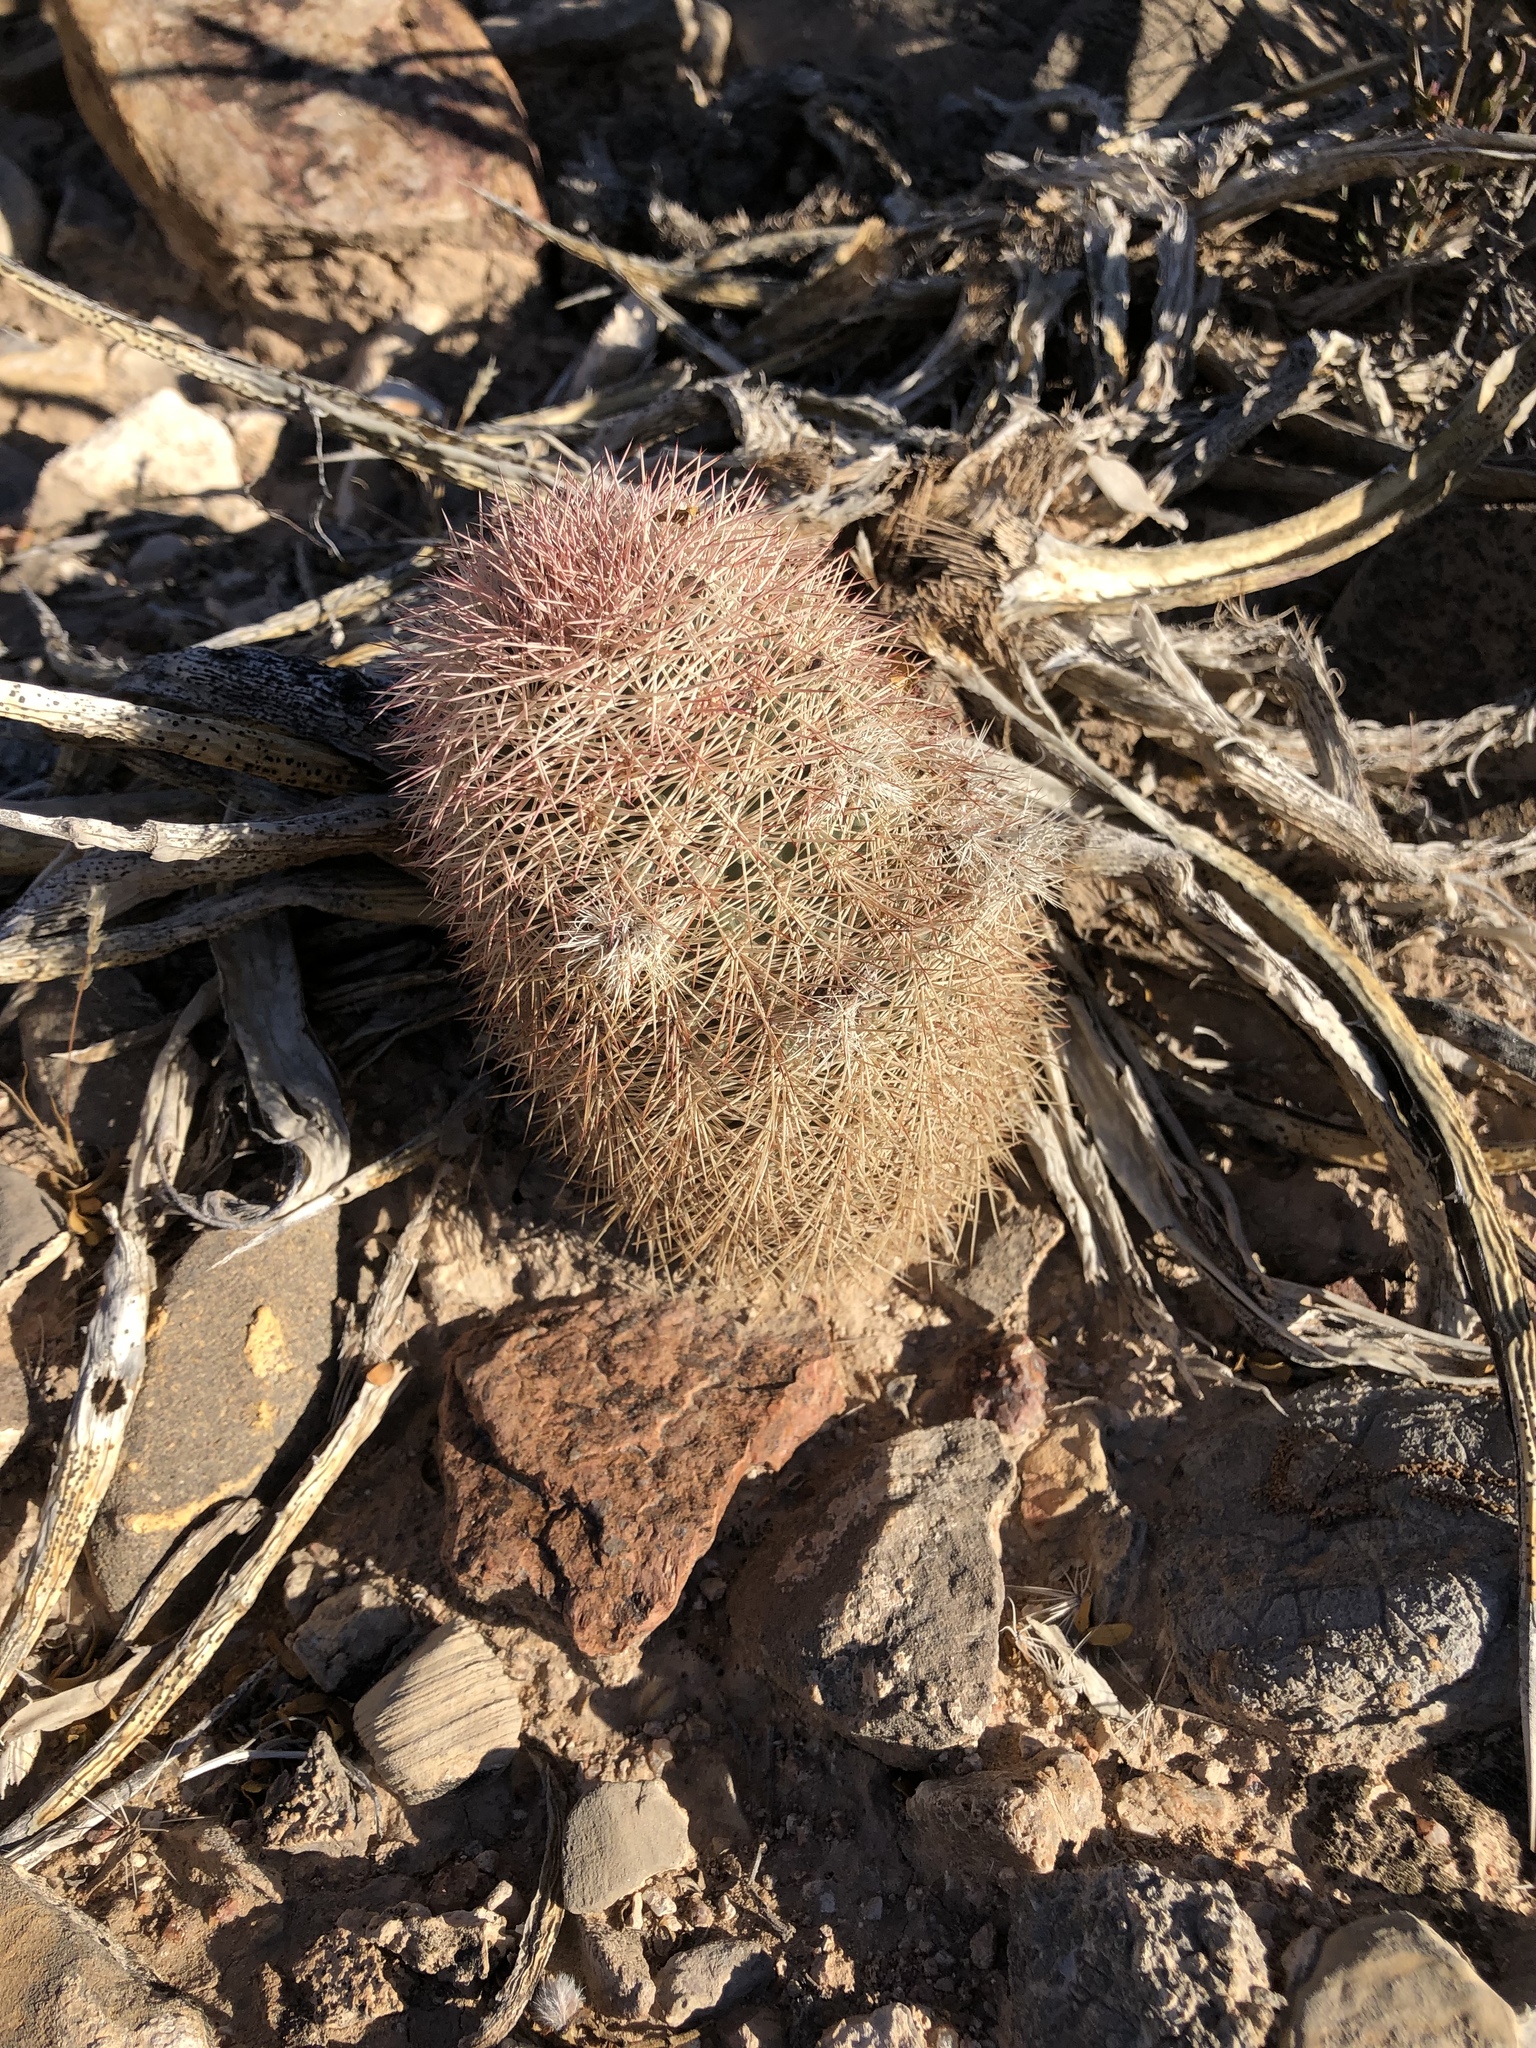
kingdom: Plantae
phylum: Tracheophyta
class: Magnoliopsida
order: Caryophyllales
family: Cactaceae
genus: Echinocereus
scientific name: Echinocereus dasyacanthus
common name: Spiny hedgehog cactus
